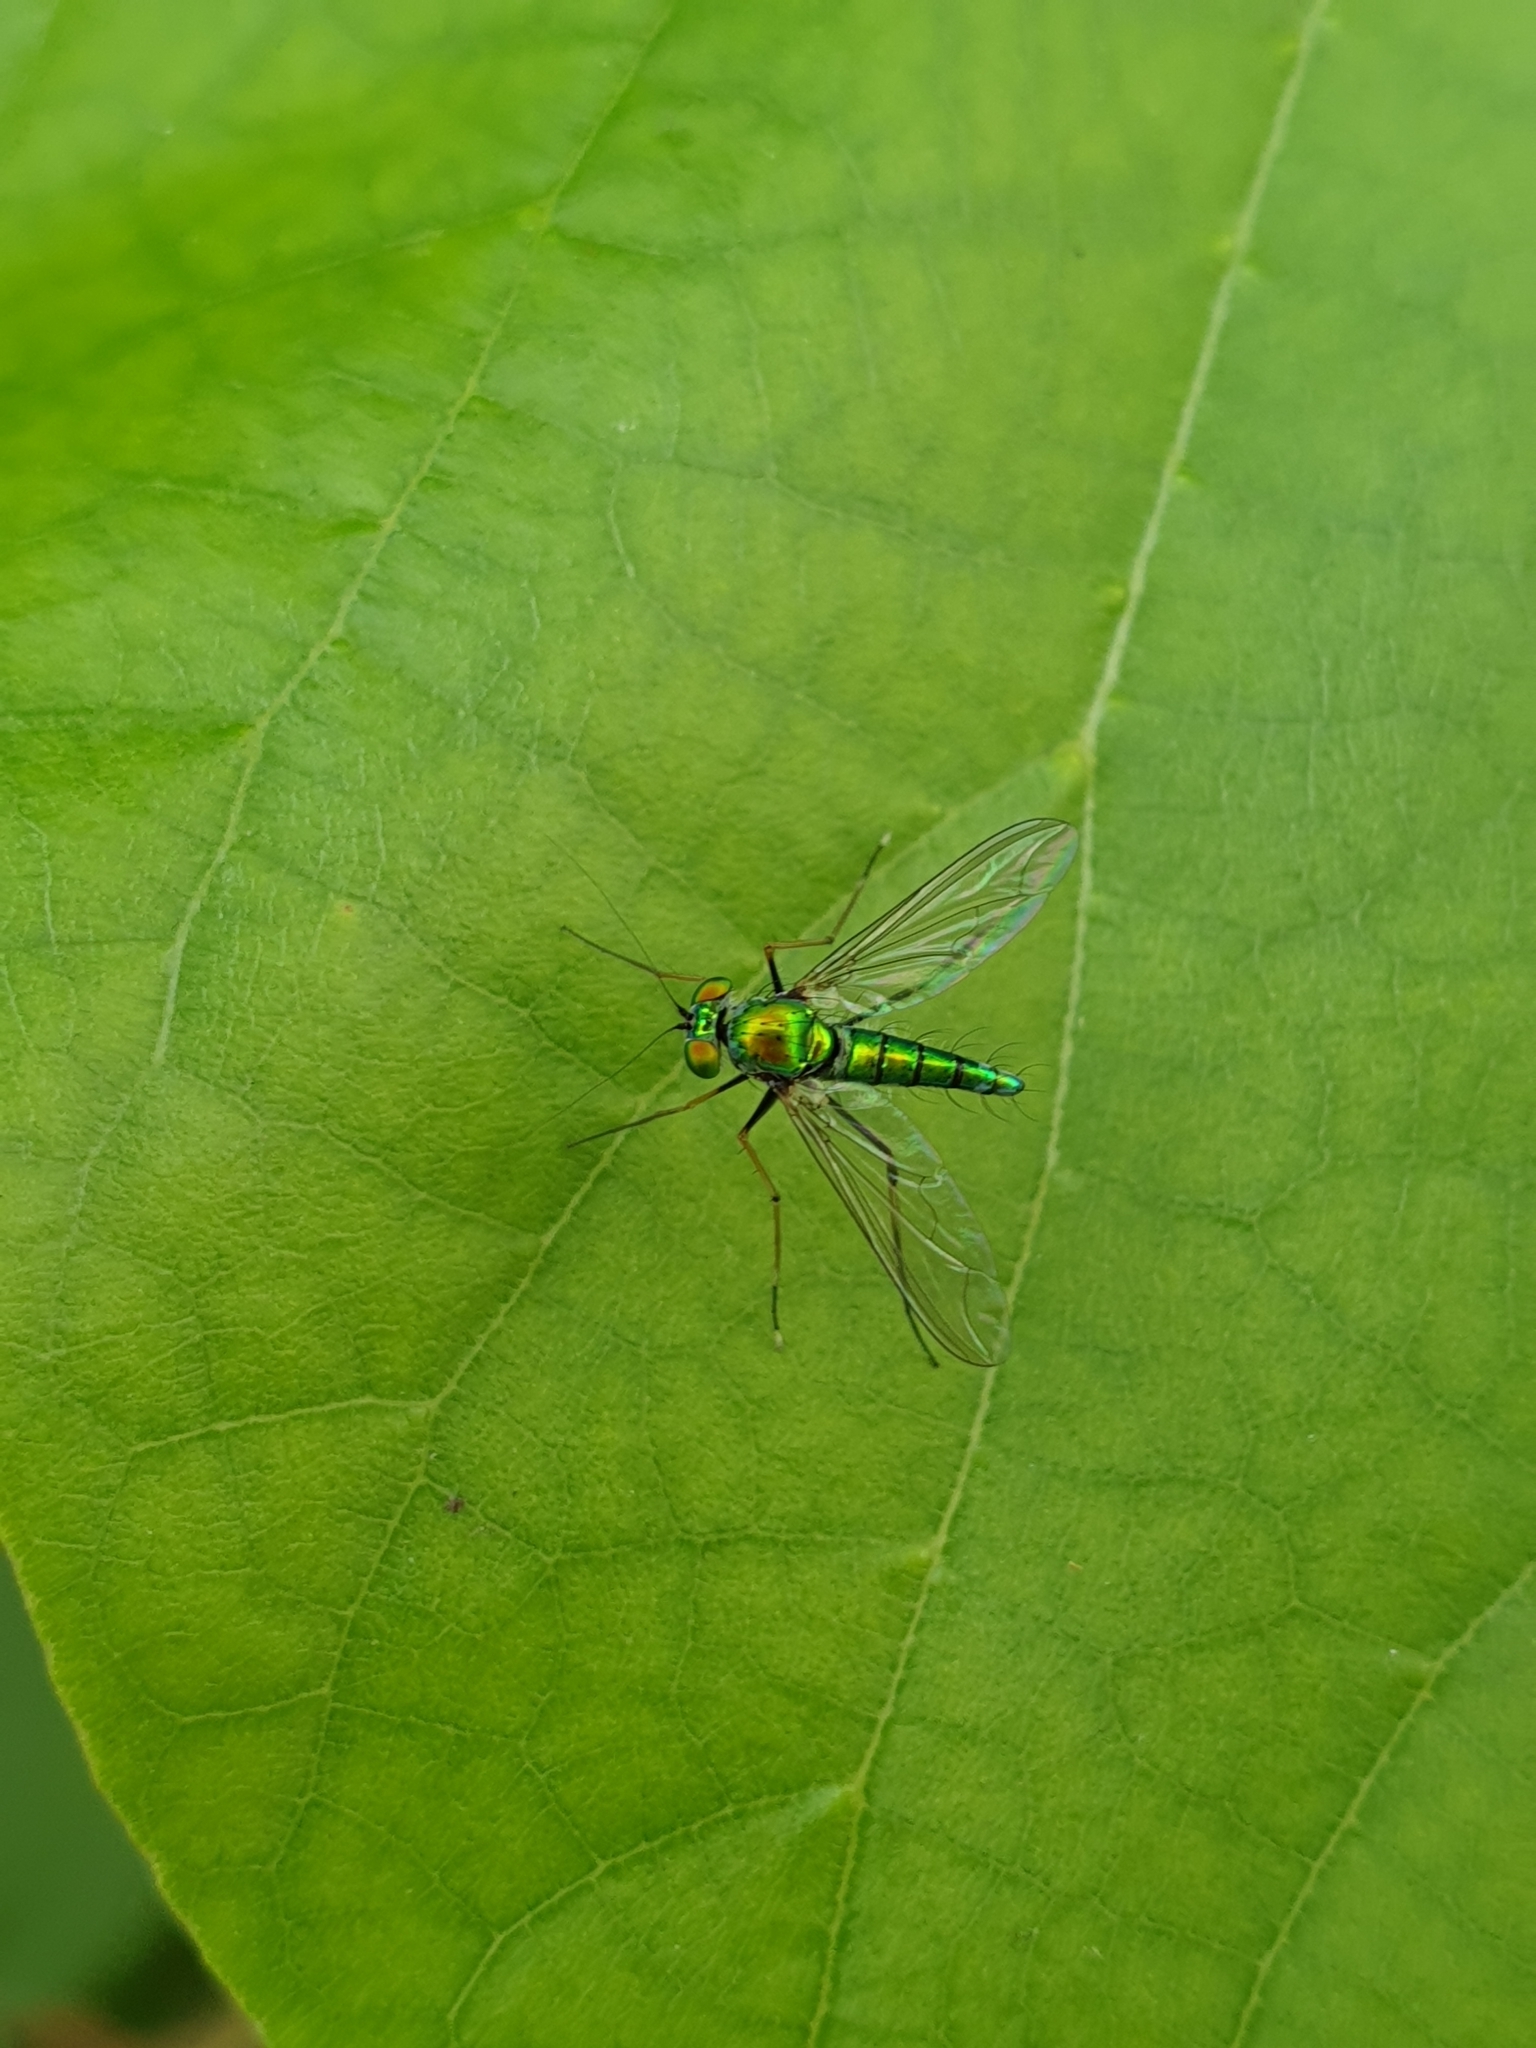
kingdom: Animalia
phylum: Arthropoda
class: Insecta
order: Diptera
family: Dolichopodidae
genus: Chrysosoma
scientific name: Chrysosoma leucopogon
